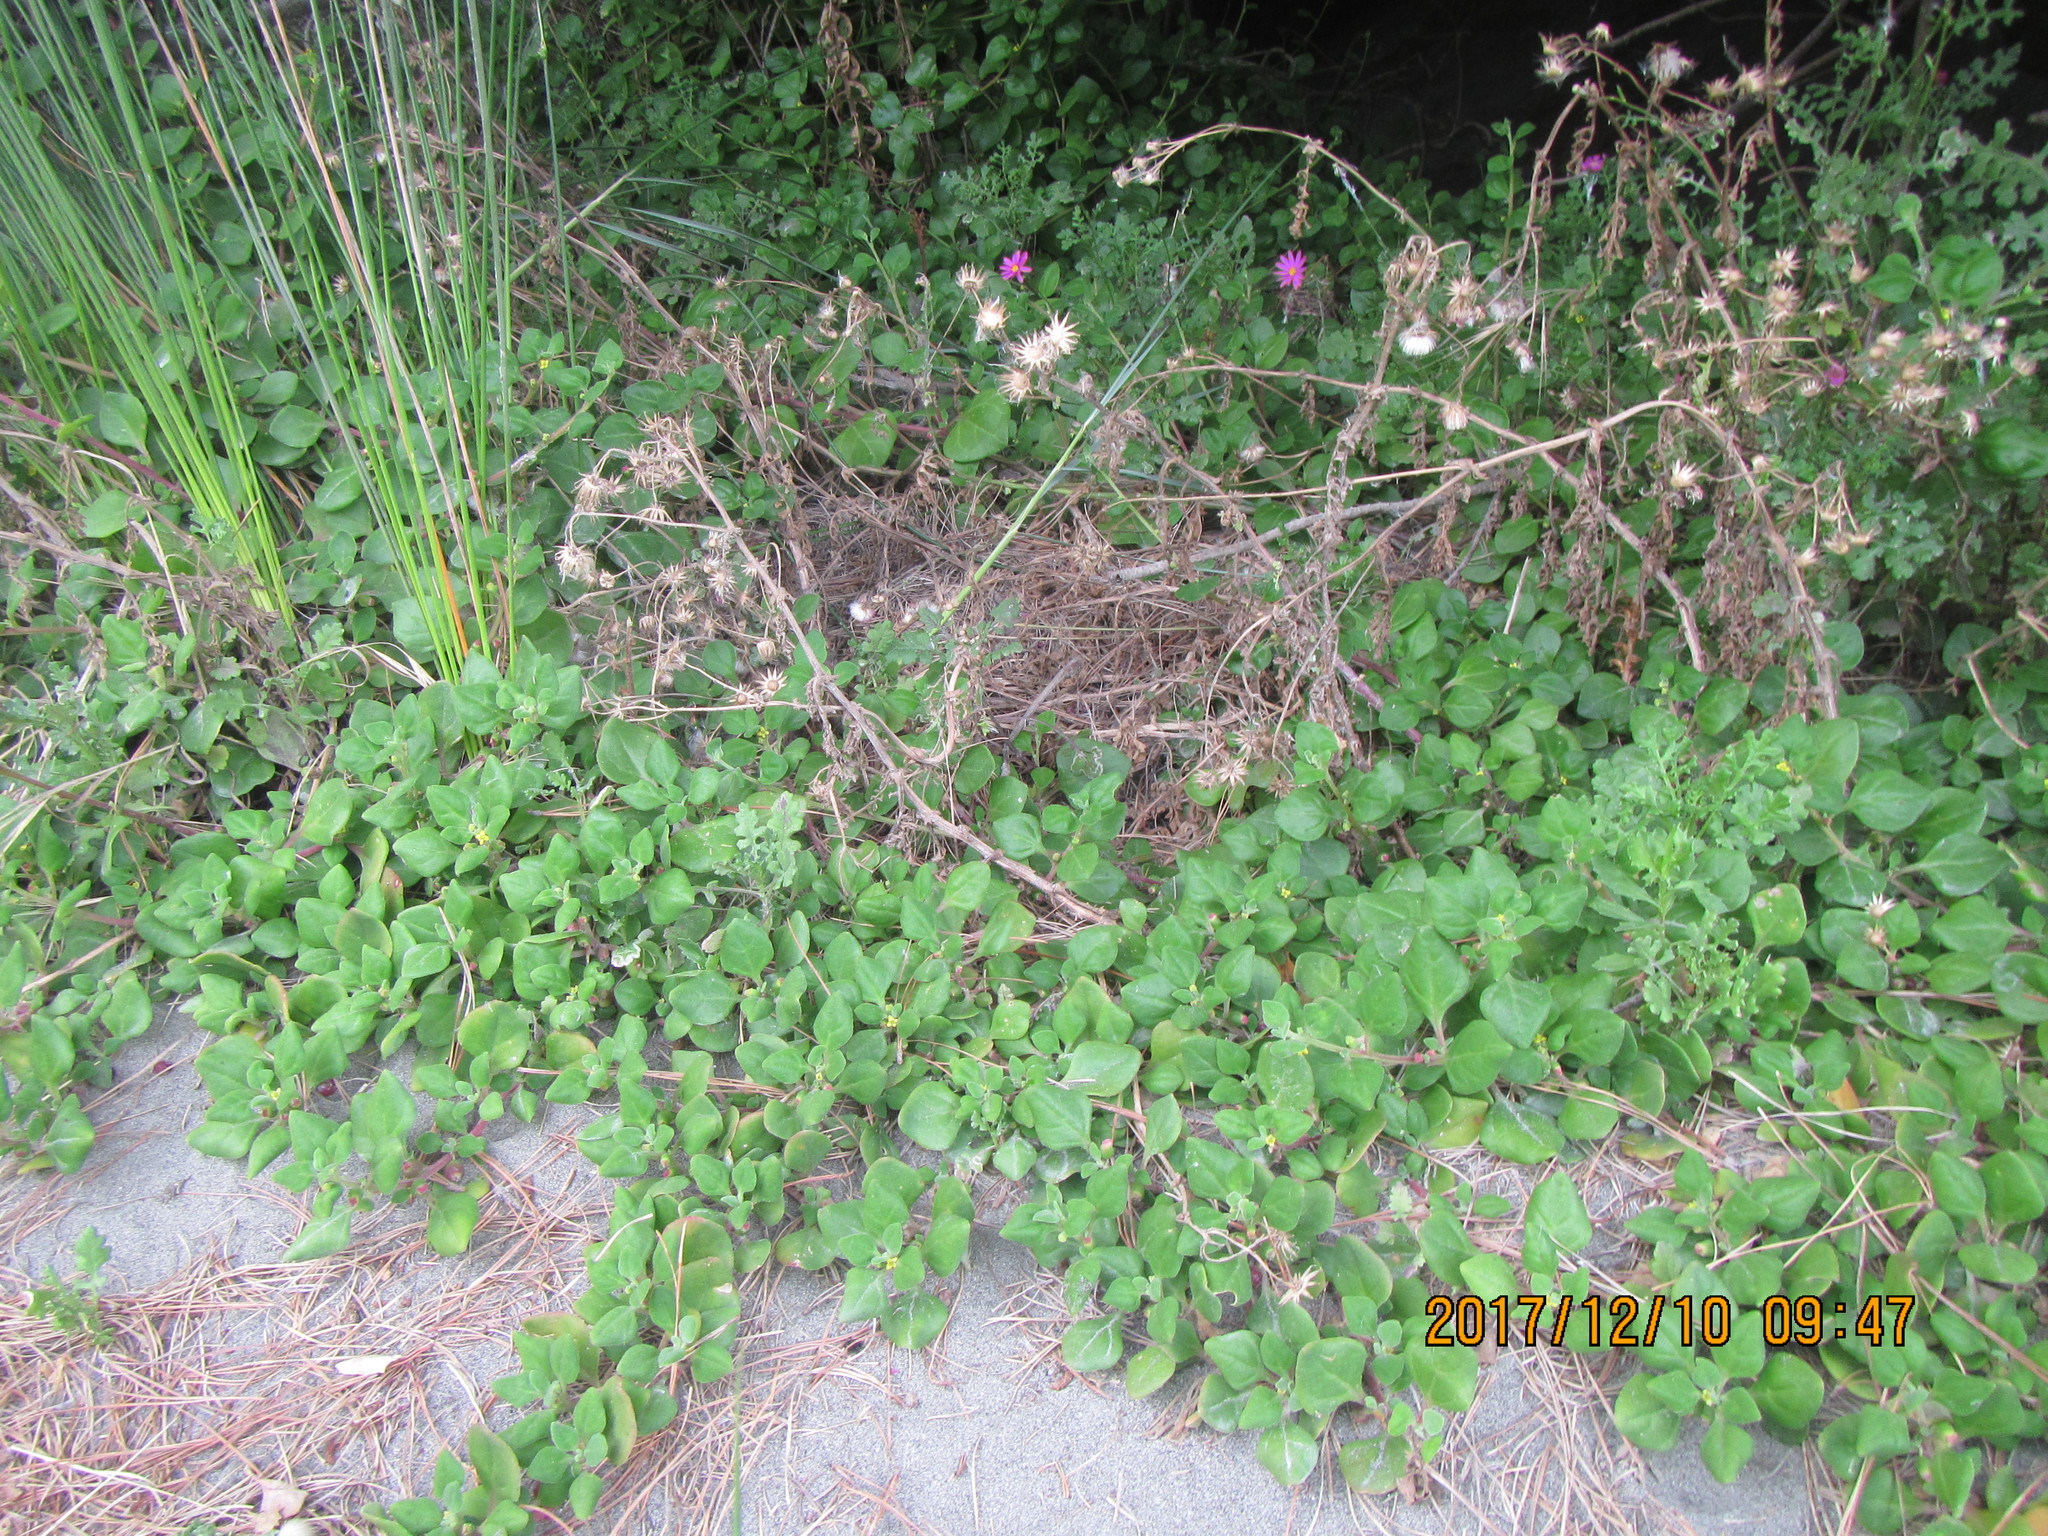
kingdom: Plantae
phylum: Tracheophyta
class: Magnoliopsida
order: Caryophyllales
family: Aizoaceae
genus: Tetragonia
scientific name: Tetragonia implexicoma
